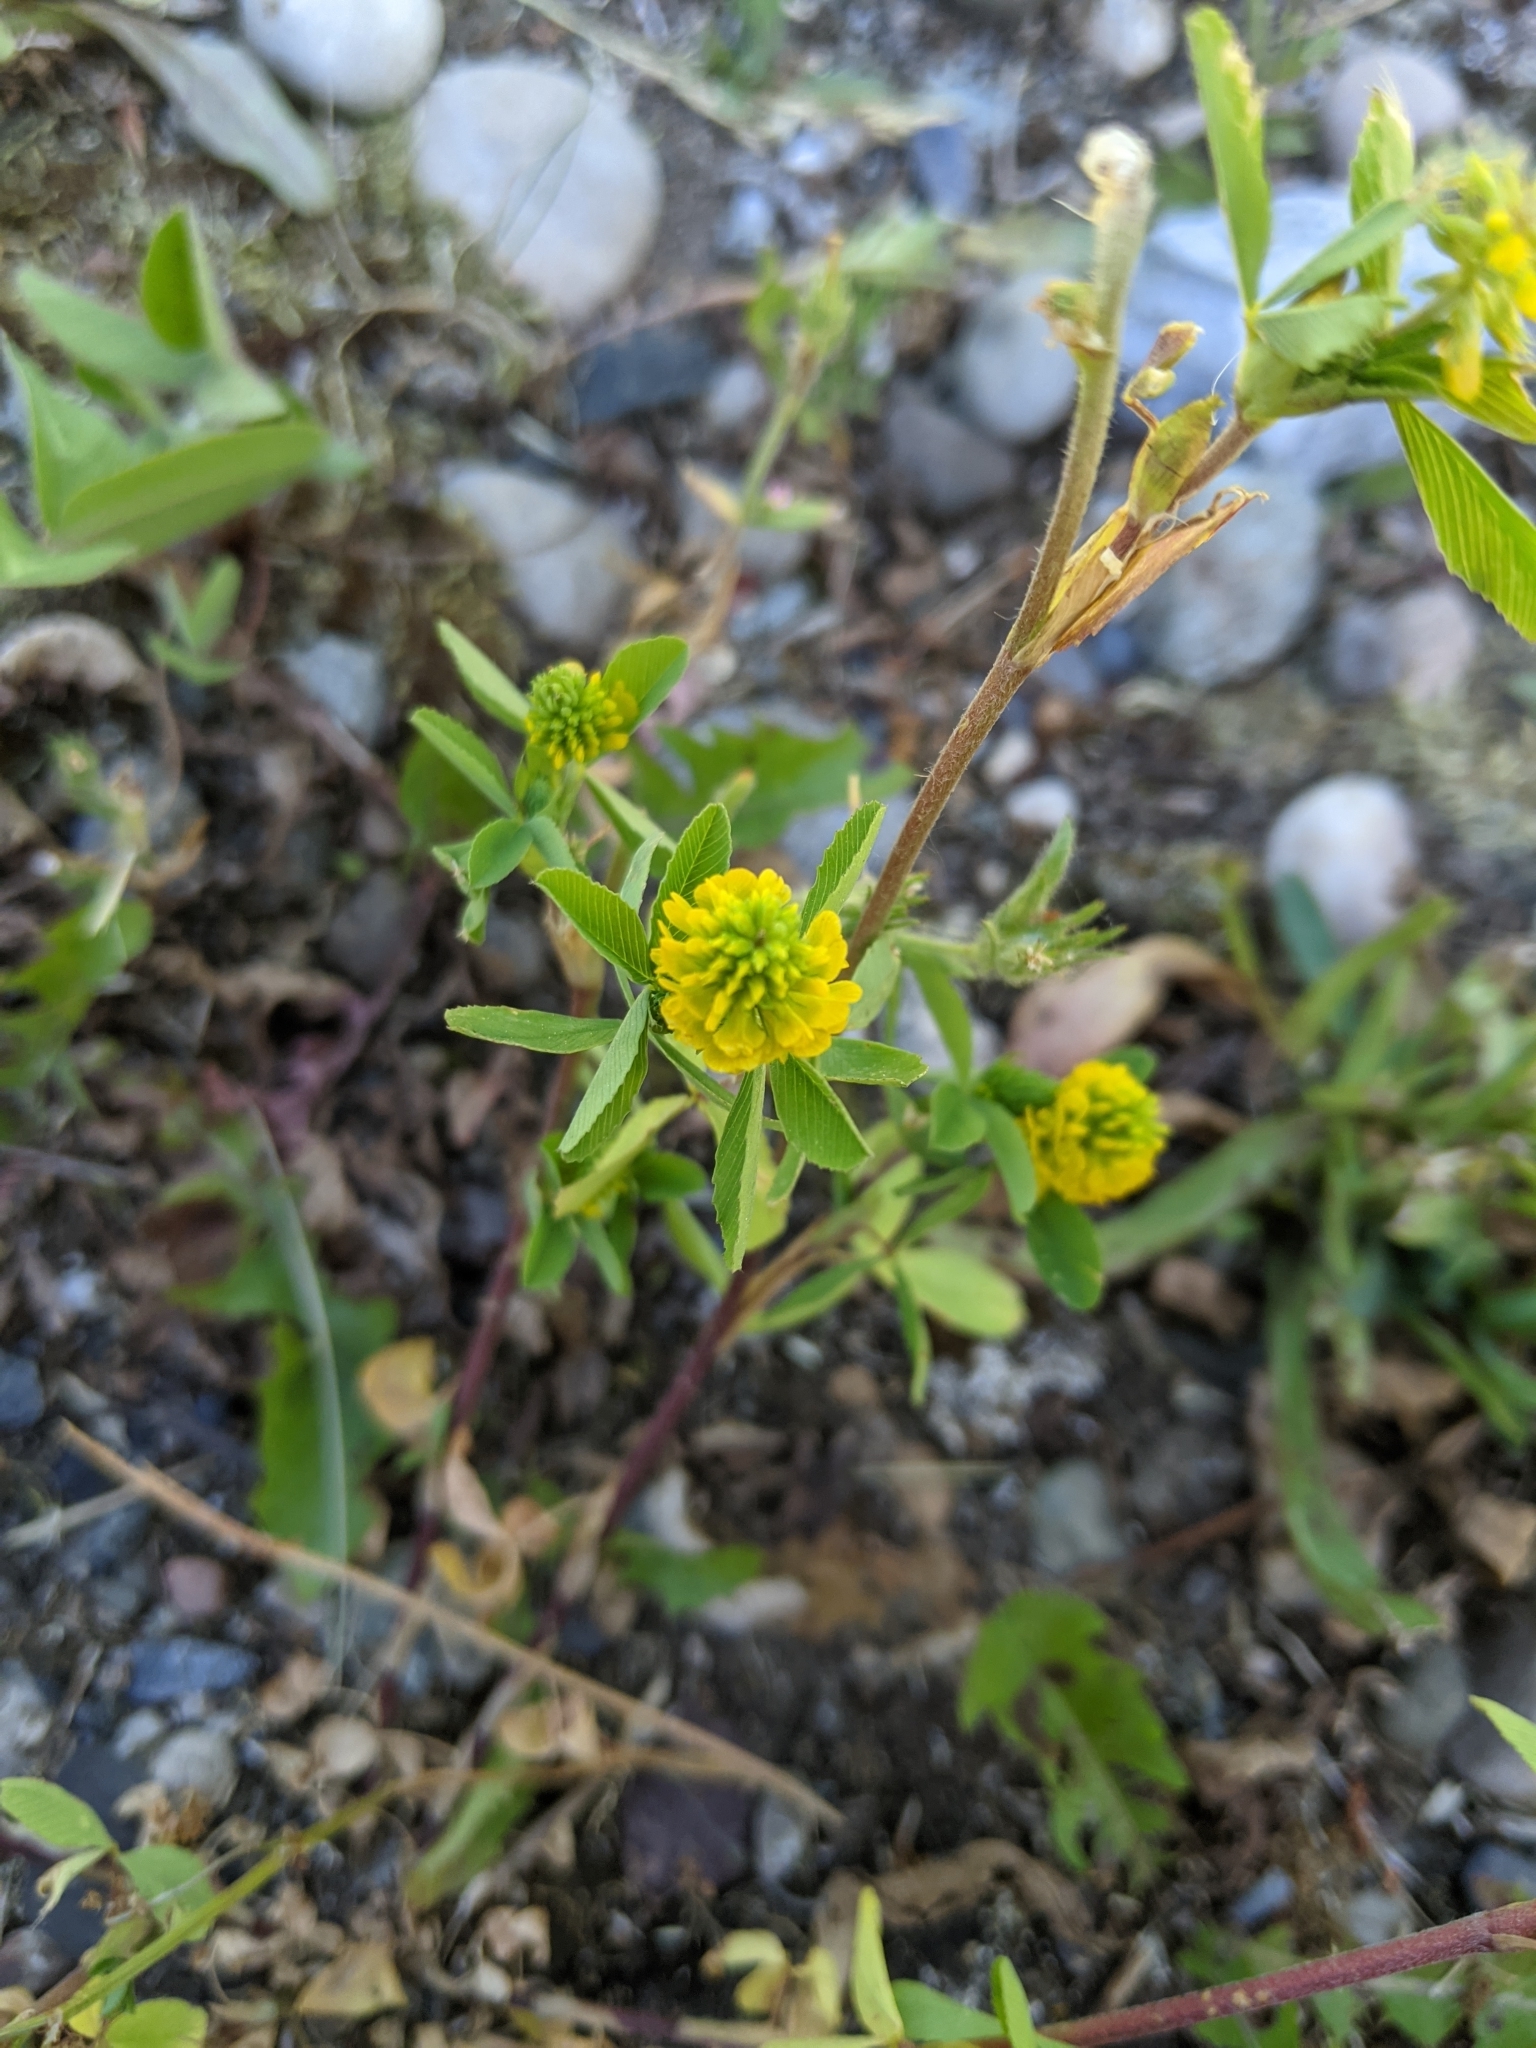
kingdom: Plantae
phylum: Tracheophyta
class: Magnoliopsida
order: Fabales
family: Fabaceae
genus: Trifolium
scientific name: Trifolium aureum
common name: Golden clover
